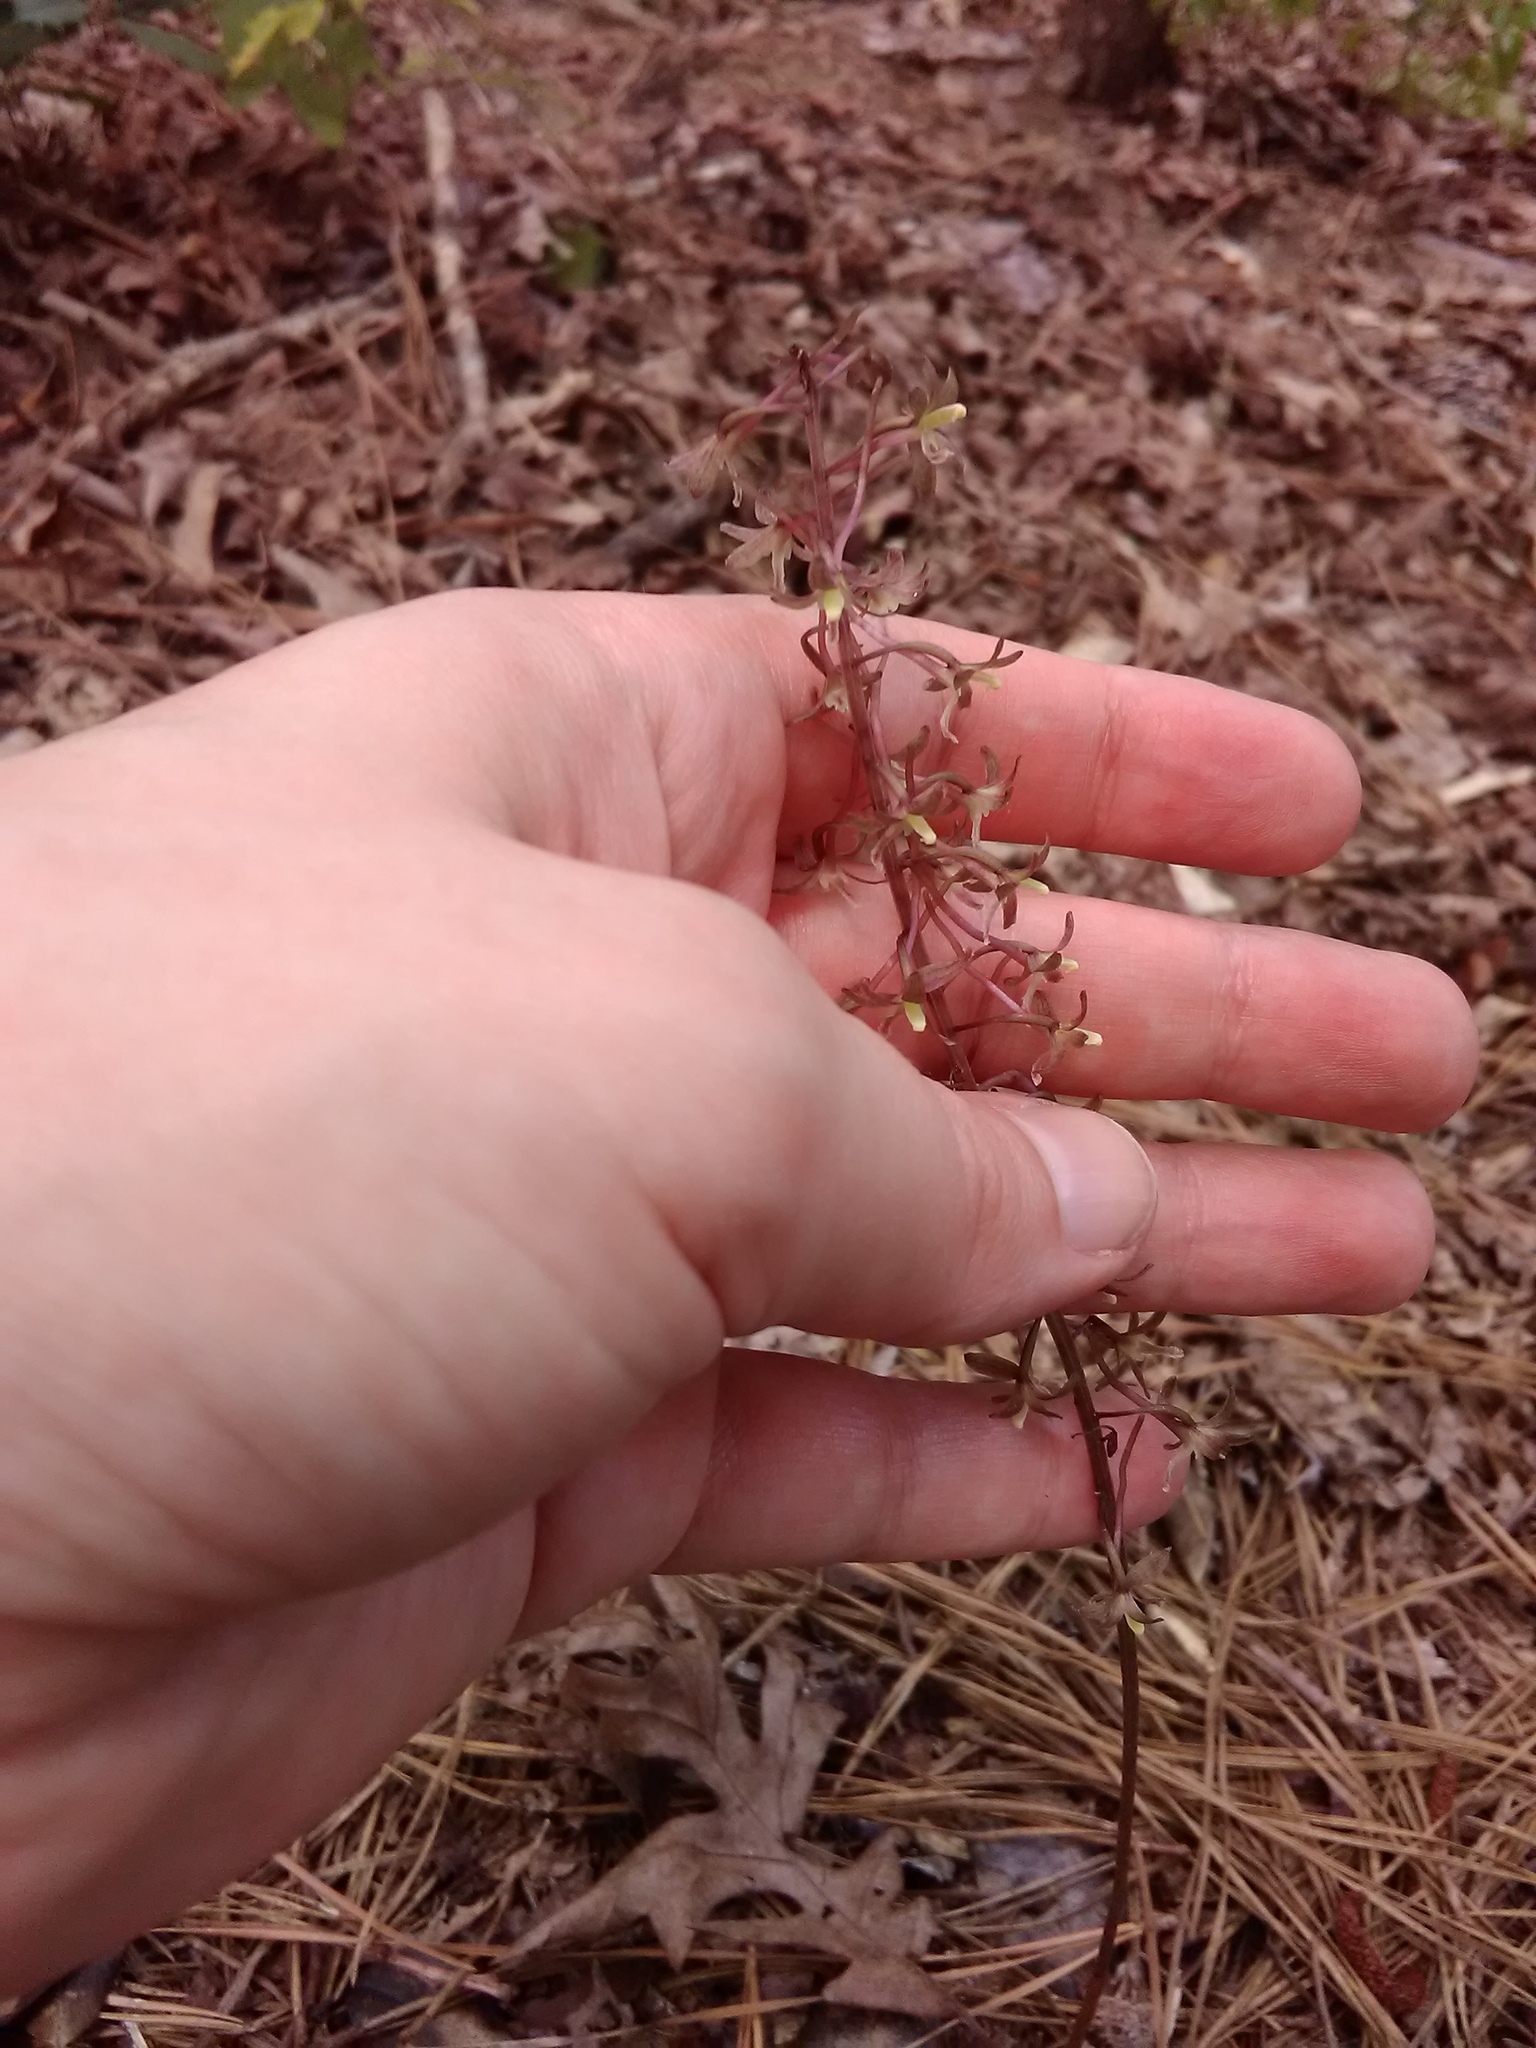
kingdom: Plantae
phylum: Tracheophyta
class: Liliopsida
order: Asparagales
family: Orchidaceae
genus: Tipularia
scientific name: Tipularia discolor
